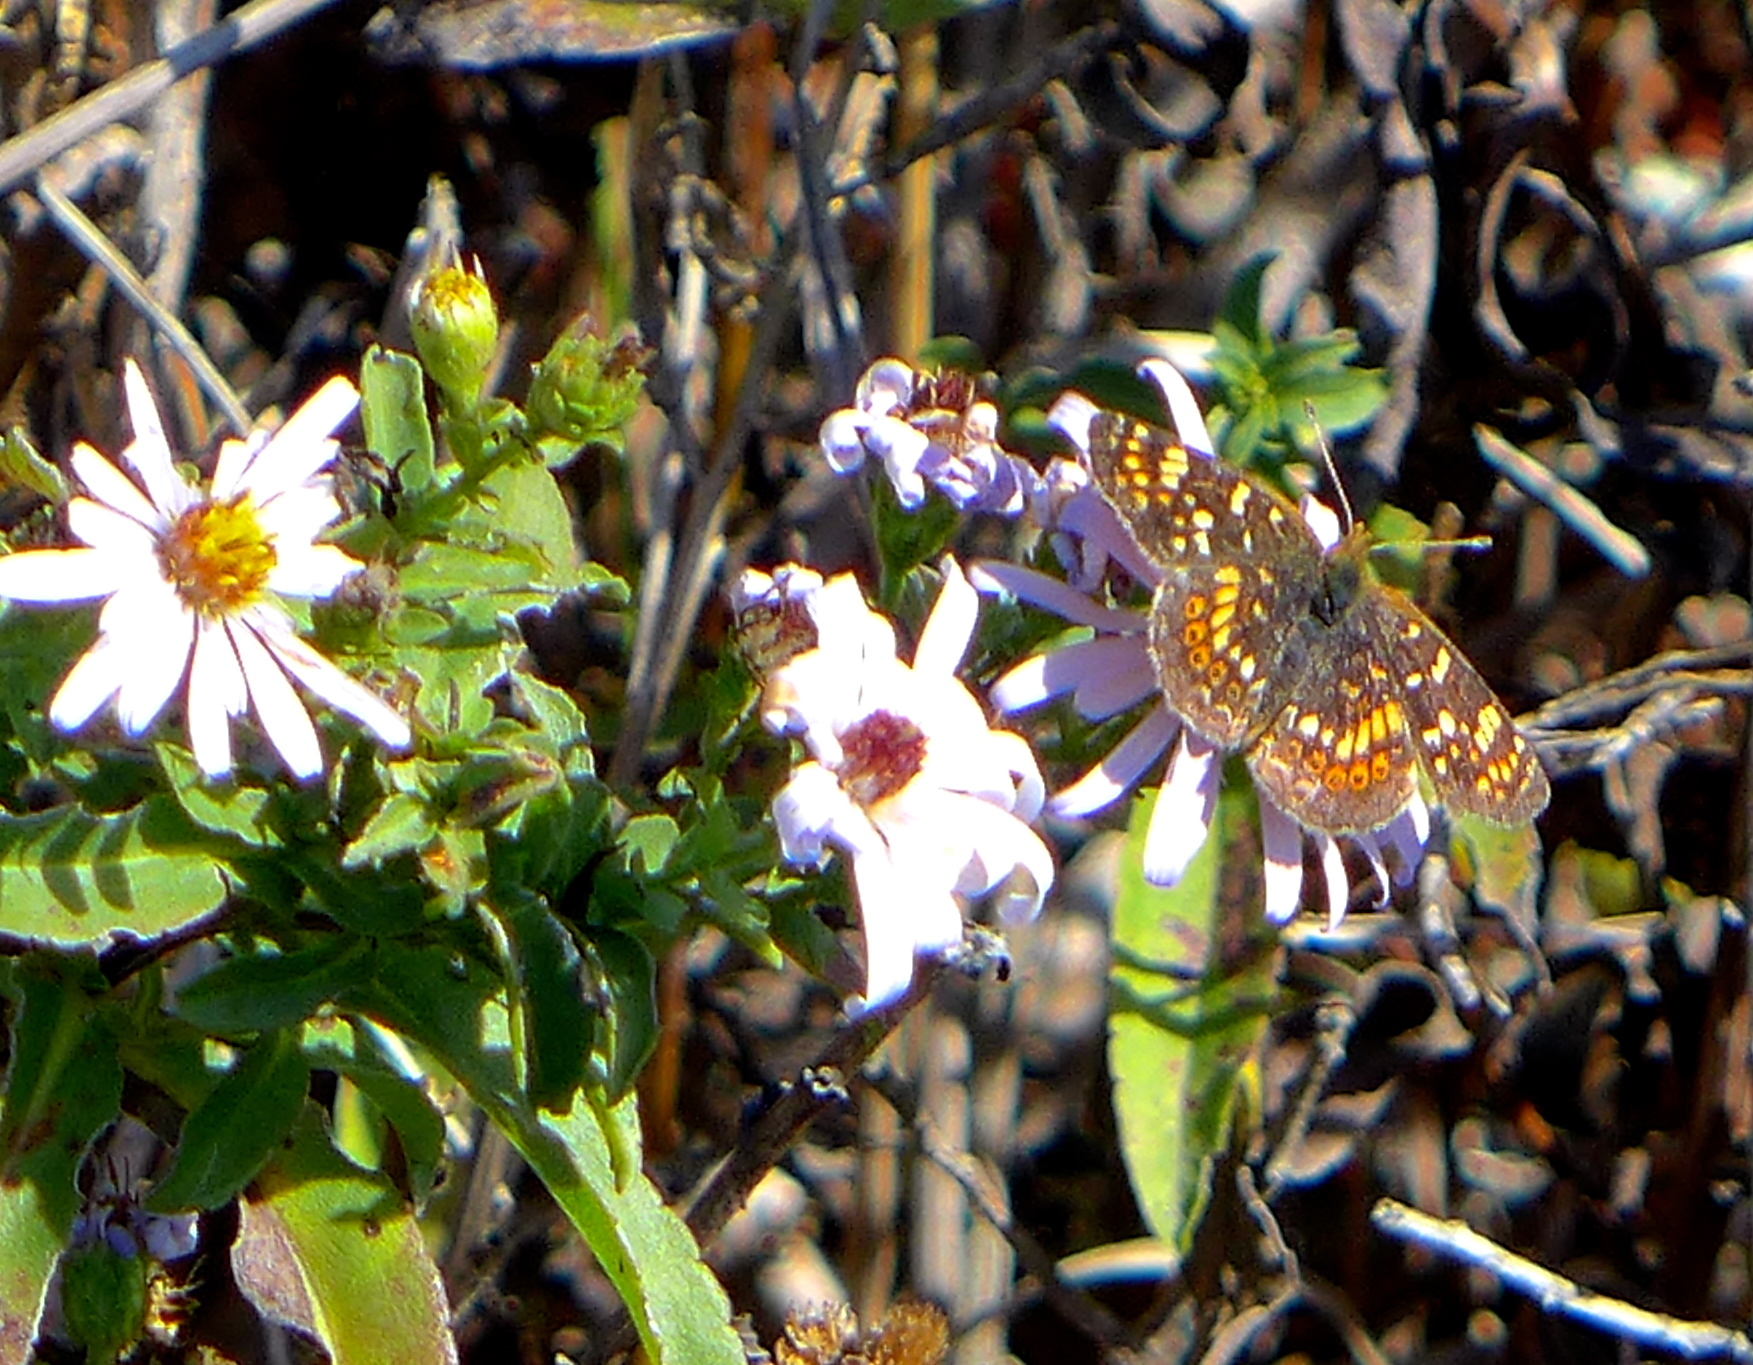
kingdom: Animalia
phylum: Arthropoda
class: Insecta
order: Lepidoptera
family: Nymphalidae
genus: Phyciodes
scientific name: Phyciodes tharos
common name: Pearl crescent
